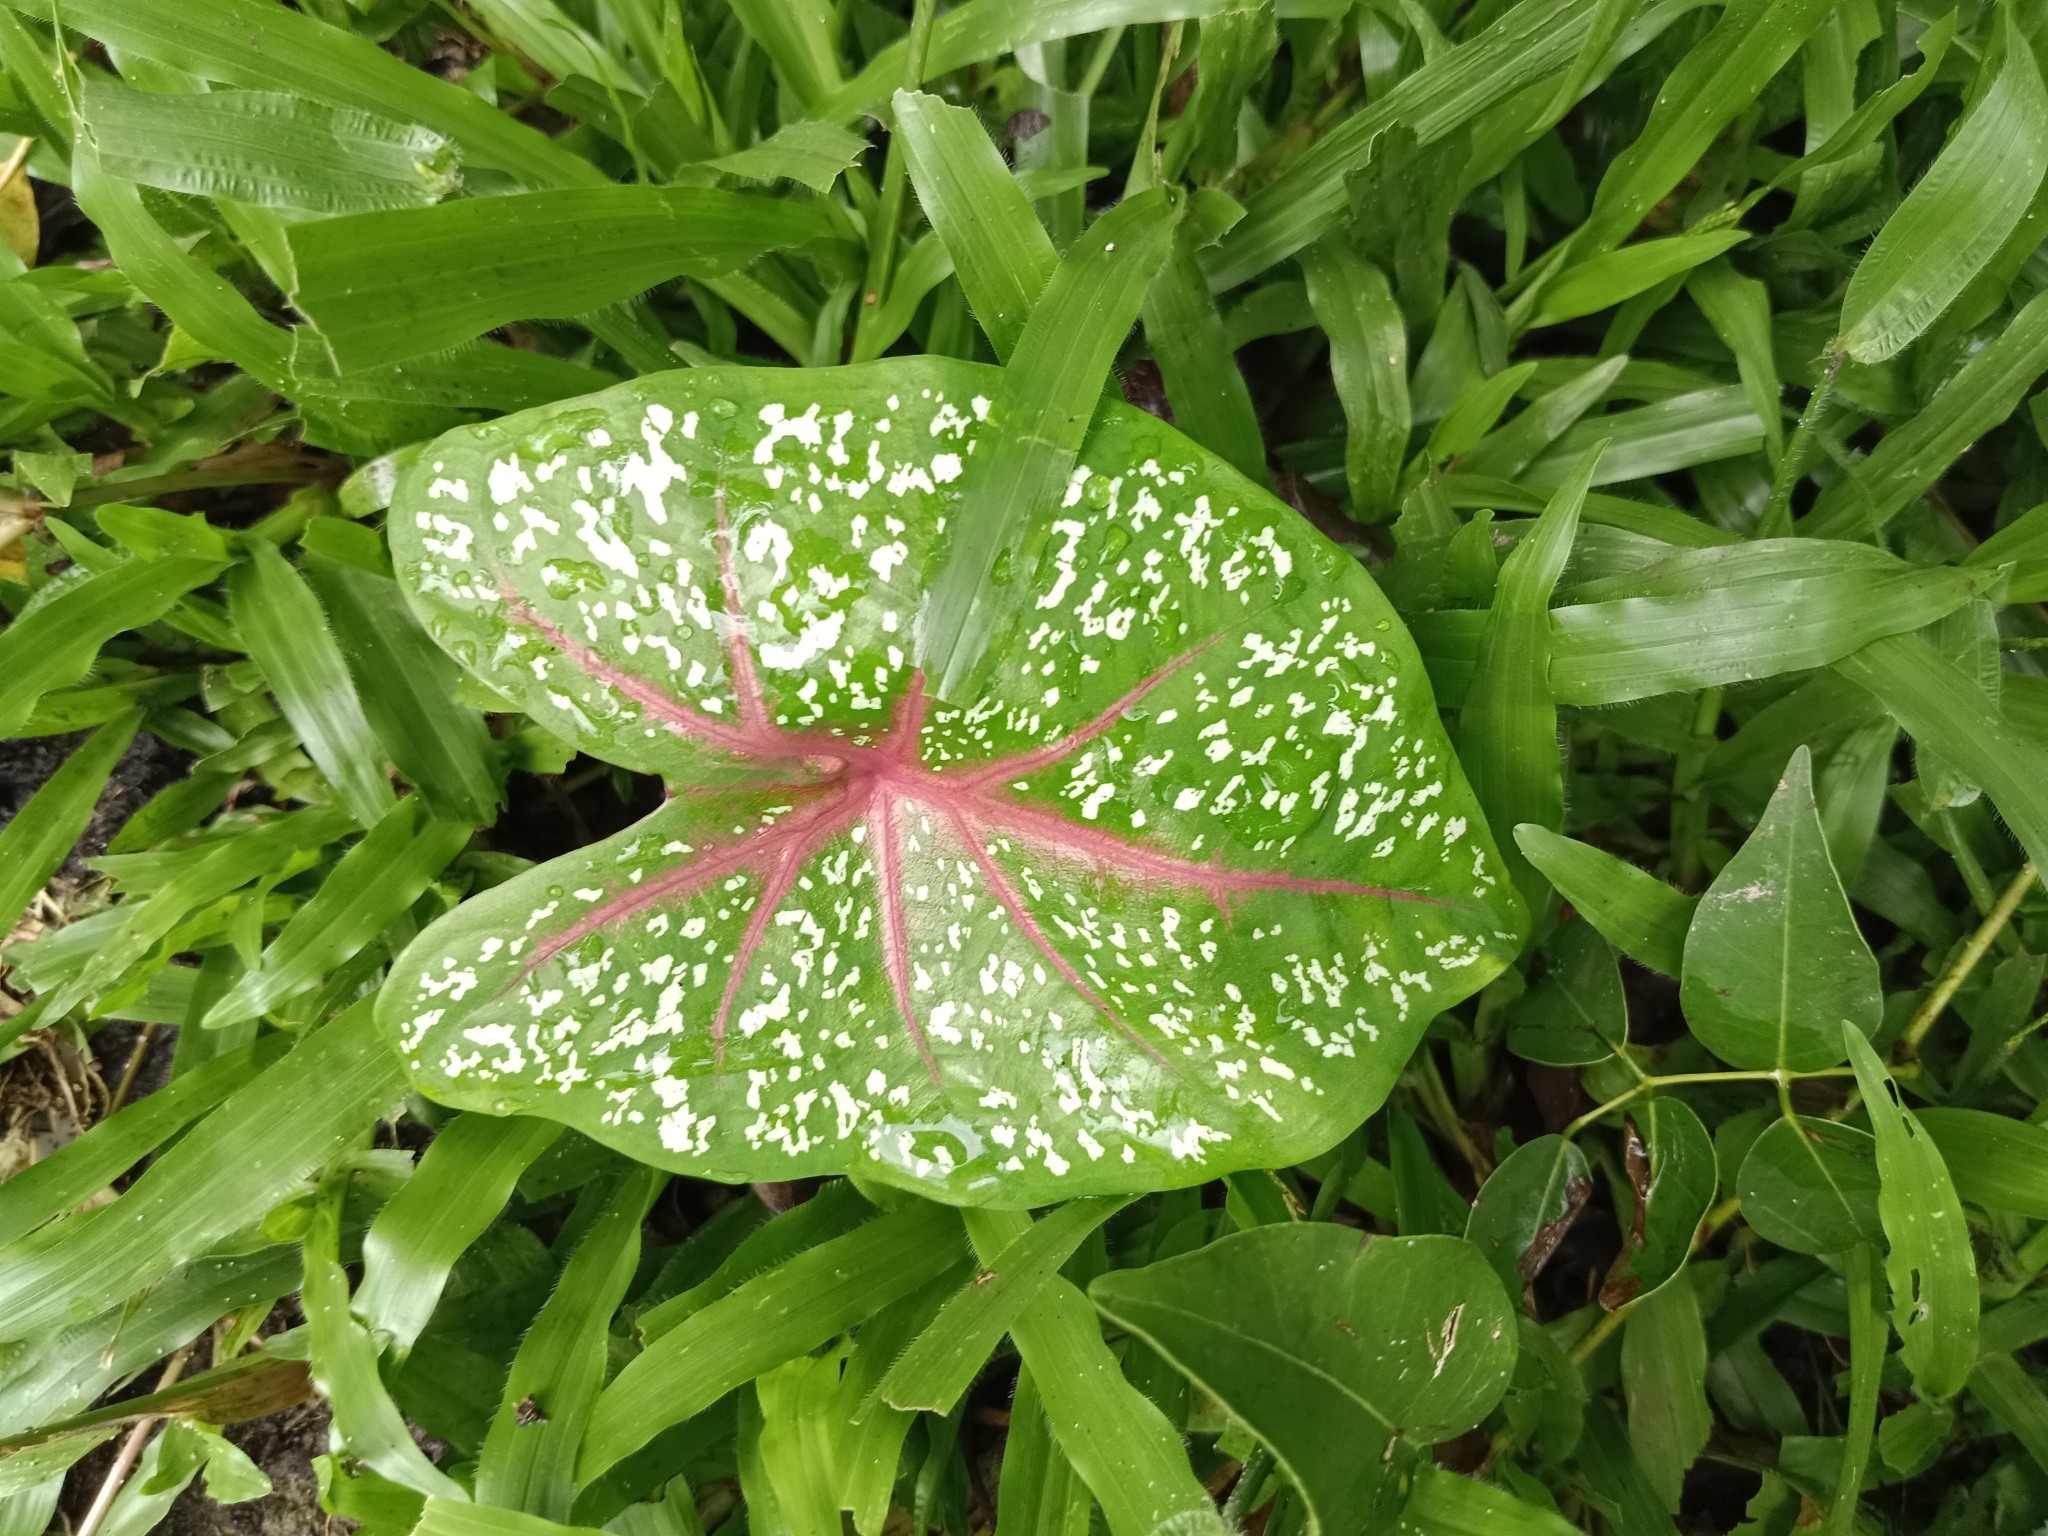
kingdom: Plantae
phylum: Tracheophyta
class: Liliopsida
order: Alismatales
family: Araceae
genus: Caladium
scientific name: Caladium bicolor
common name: Artist's pallet
